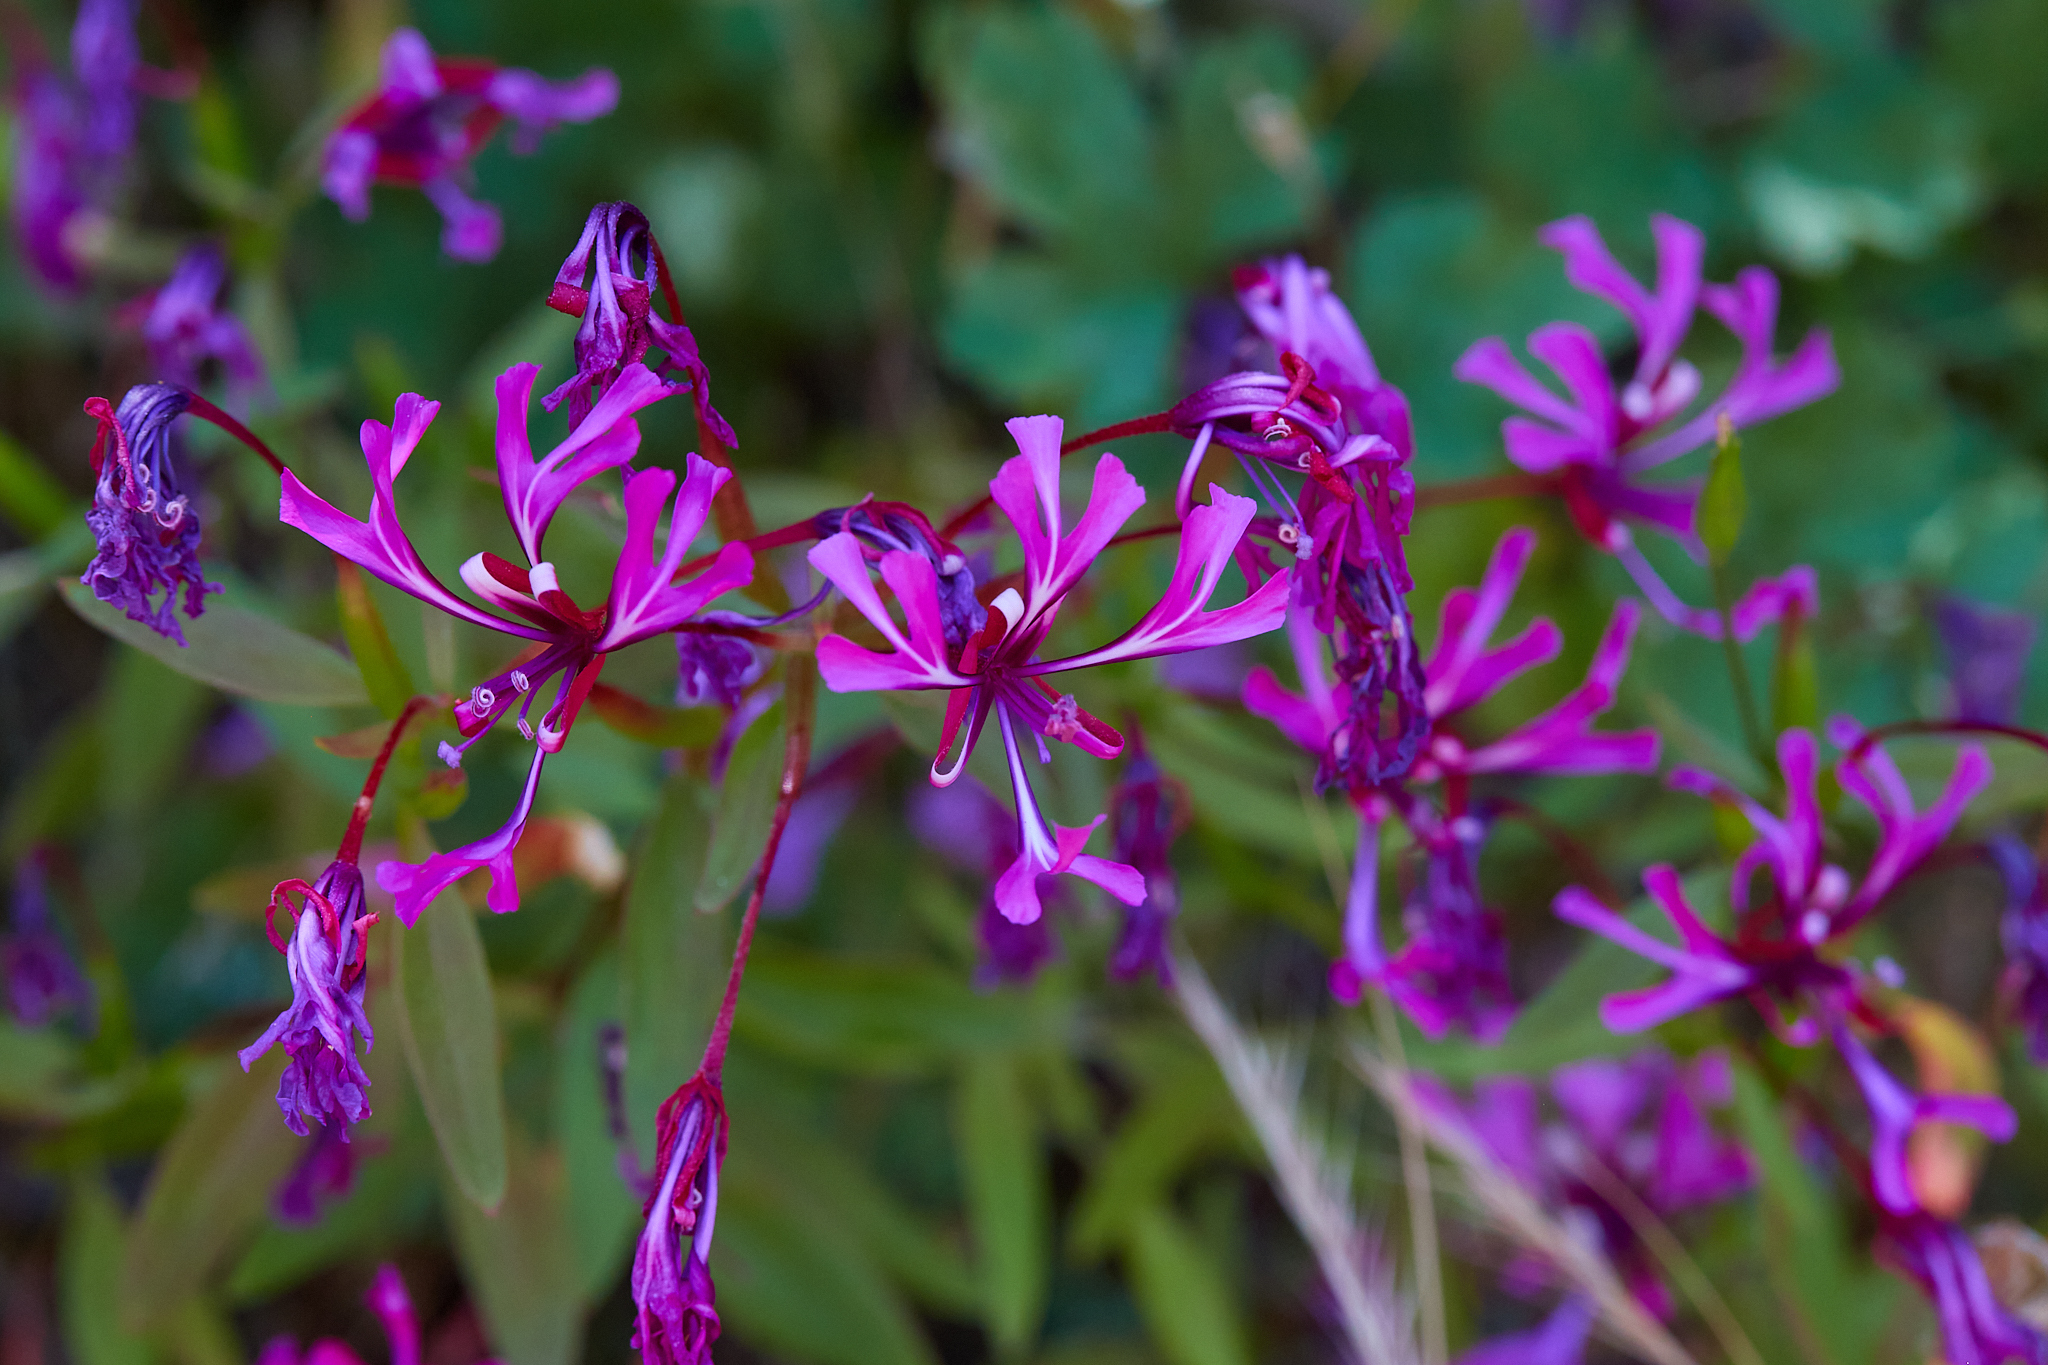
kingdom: Plantae
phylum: Tracheophyta
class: Magnoliopsida
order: Myrtales
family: Onagraceae
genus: Clarkia
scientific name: Clarkia concinna
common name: Red-ribbons
